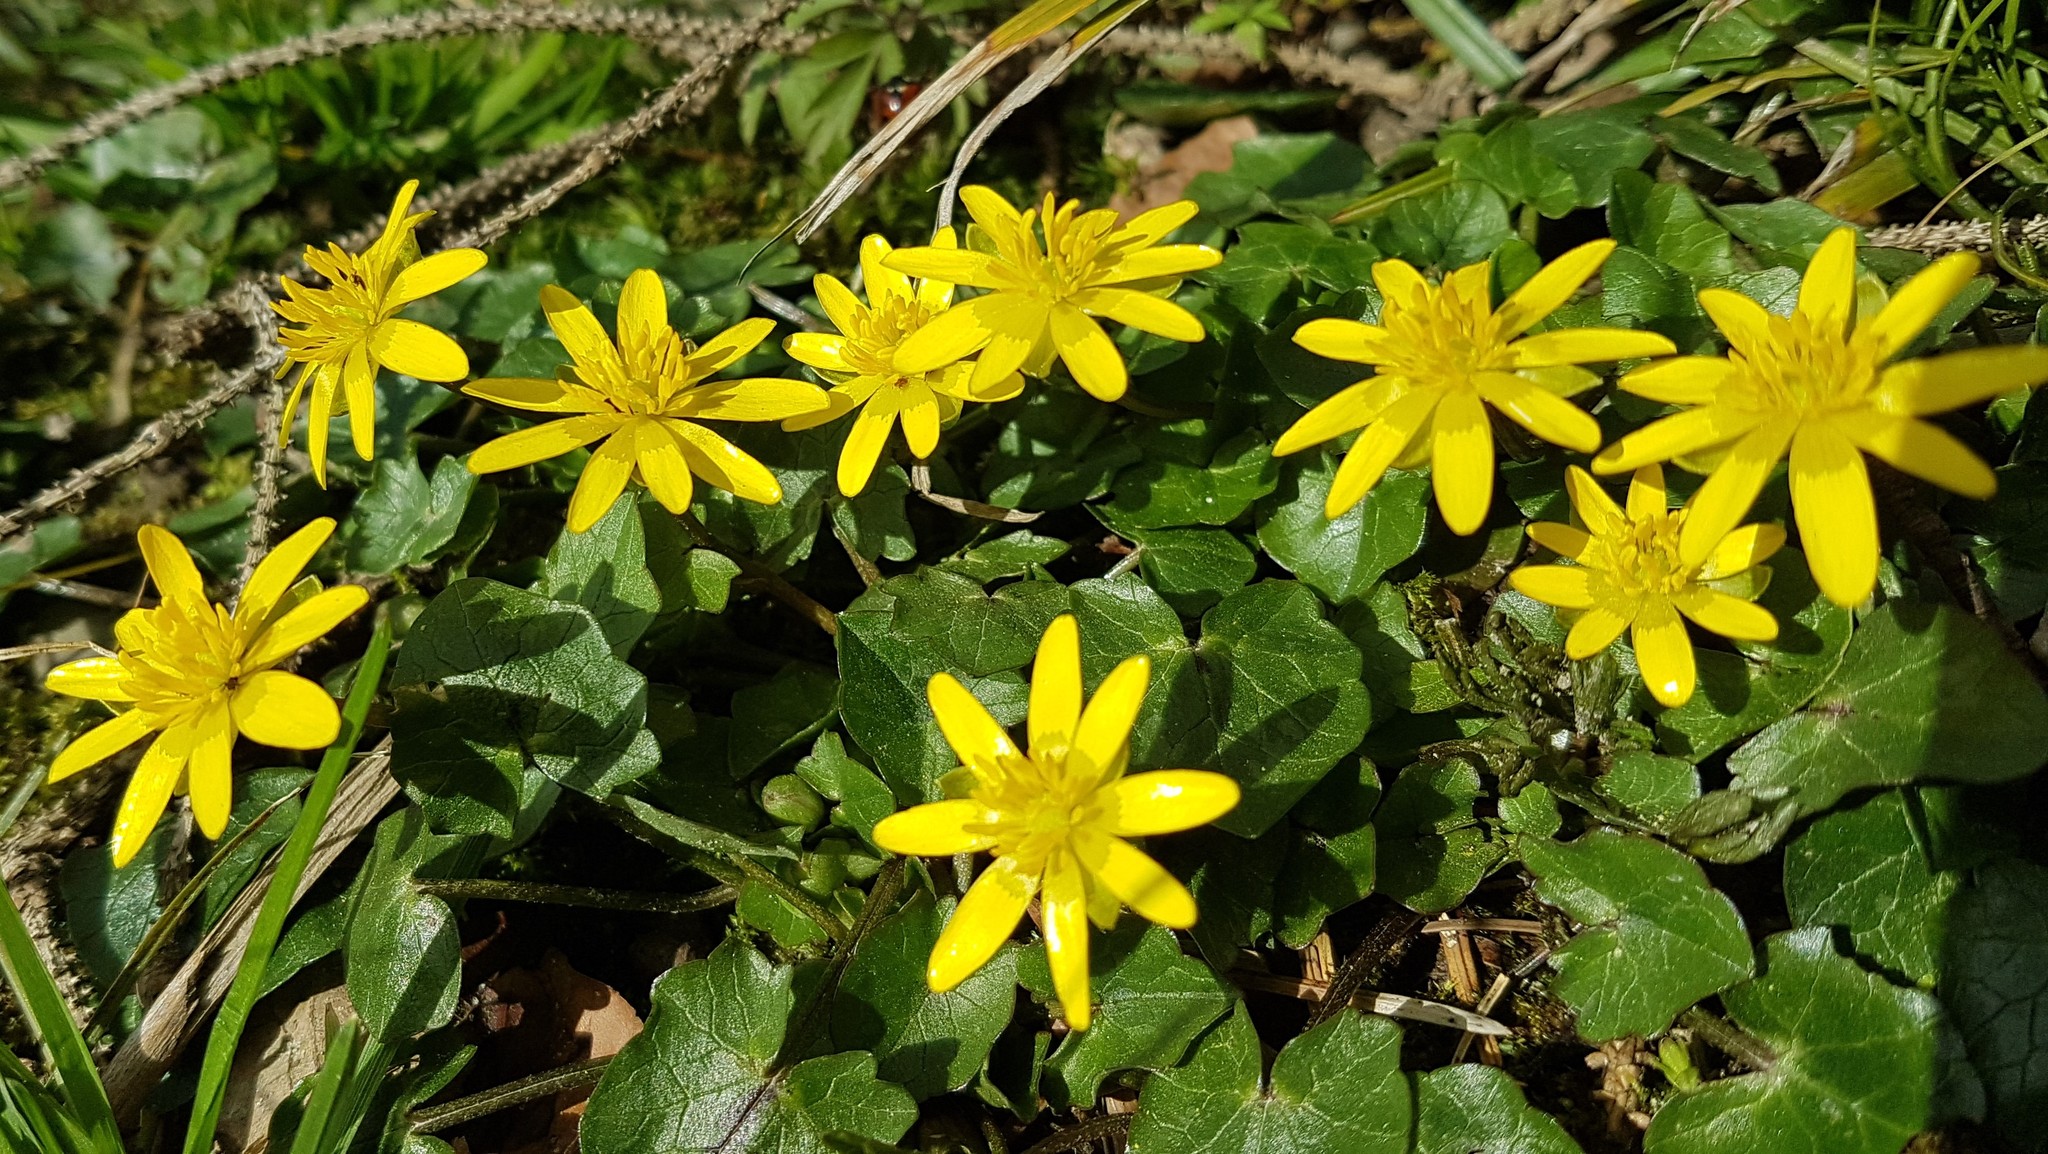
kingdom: Plantae
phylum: Tracheophyta
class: Magnoliopsida
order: Ranunculales
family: Ranunculaceae
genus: Ficaria
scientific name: Ficaria verna
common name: Lesser celandine
